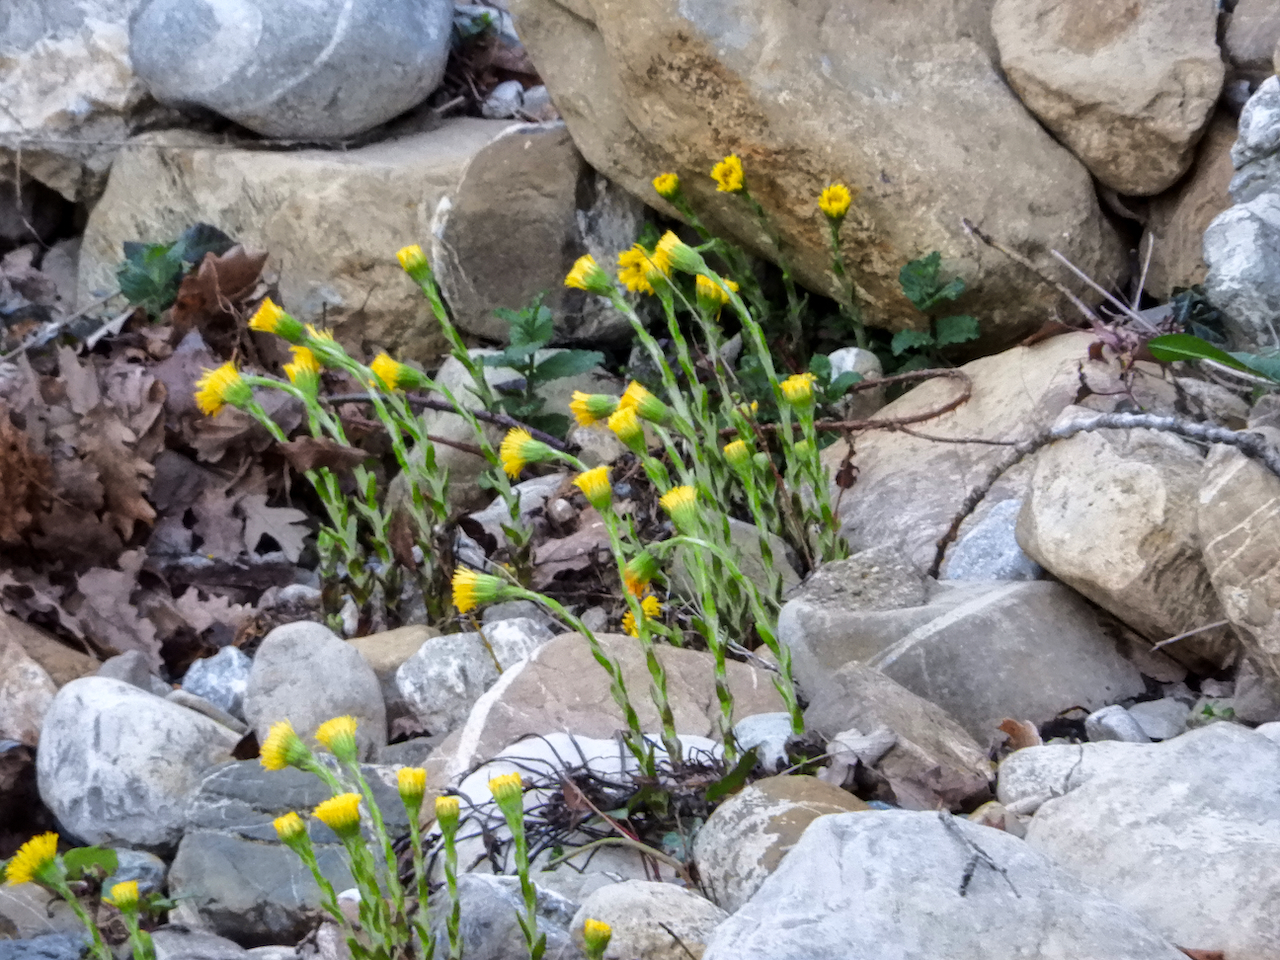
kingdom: Plantae
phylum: Tracheophyta
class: Magnoliopsida
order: Asterales
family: Asteraceae
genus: Tussilago
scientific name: Tussilago farfara
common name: Coltsfoot
